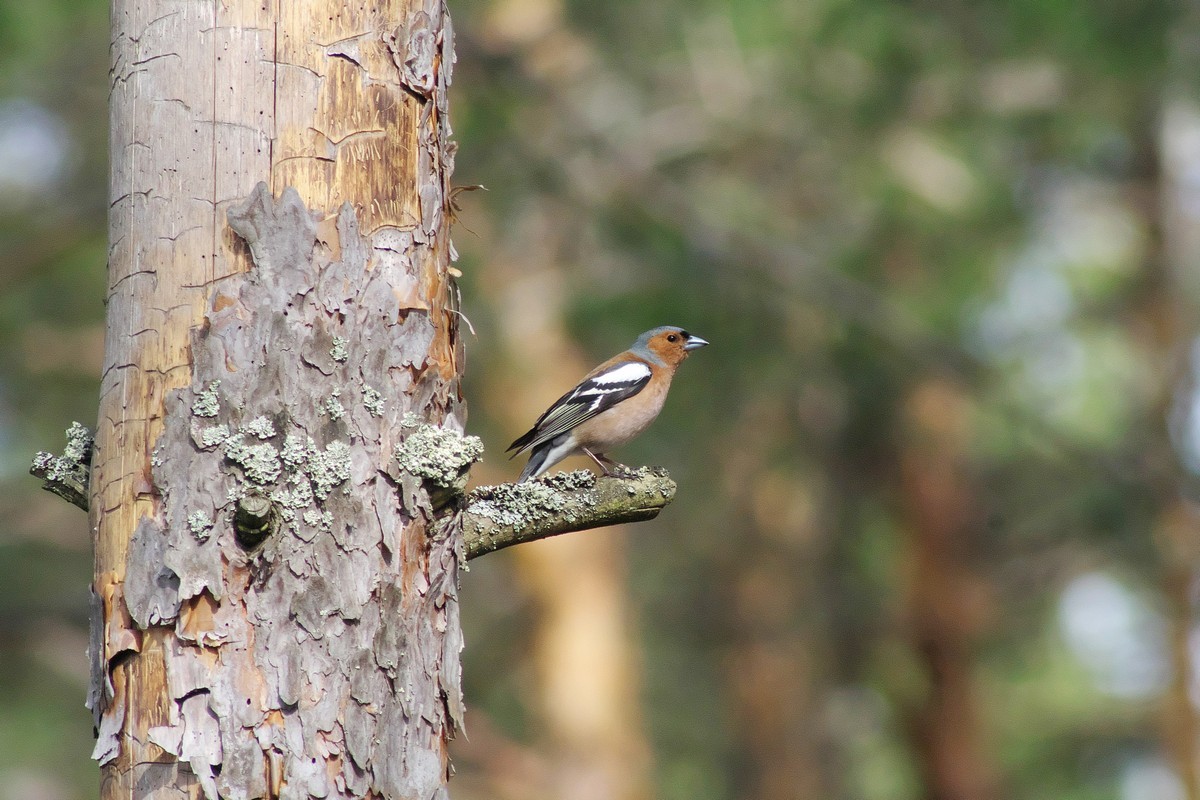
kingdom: Animalia
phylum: Chordata
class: Aves
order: Passeriformes
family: Fringillidae
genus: Fringilla
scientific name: Fringilla coelebs
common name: Common chaffinch
